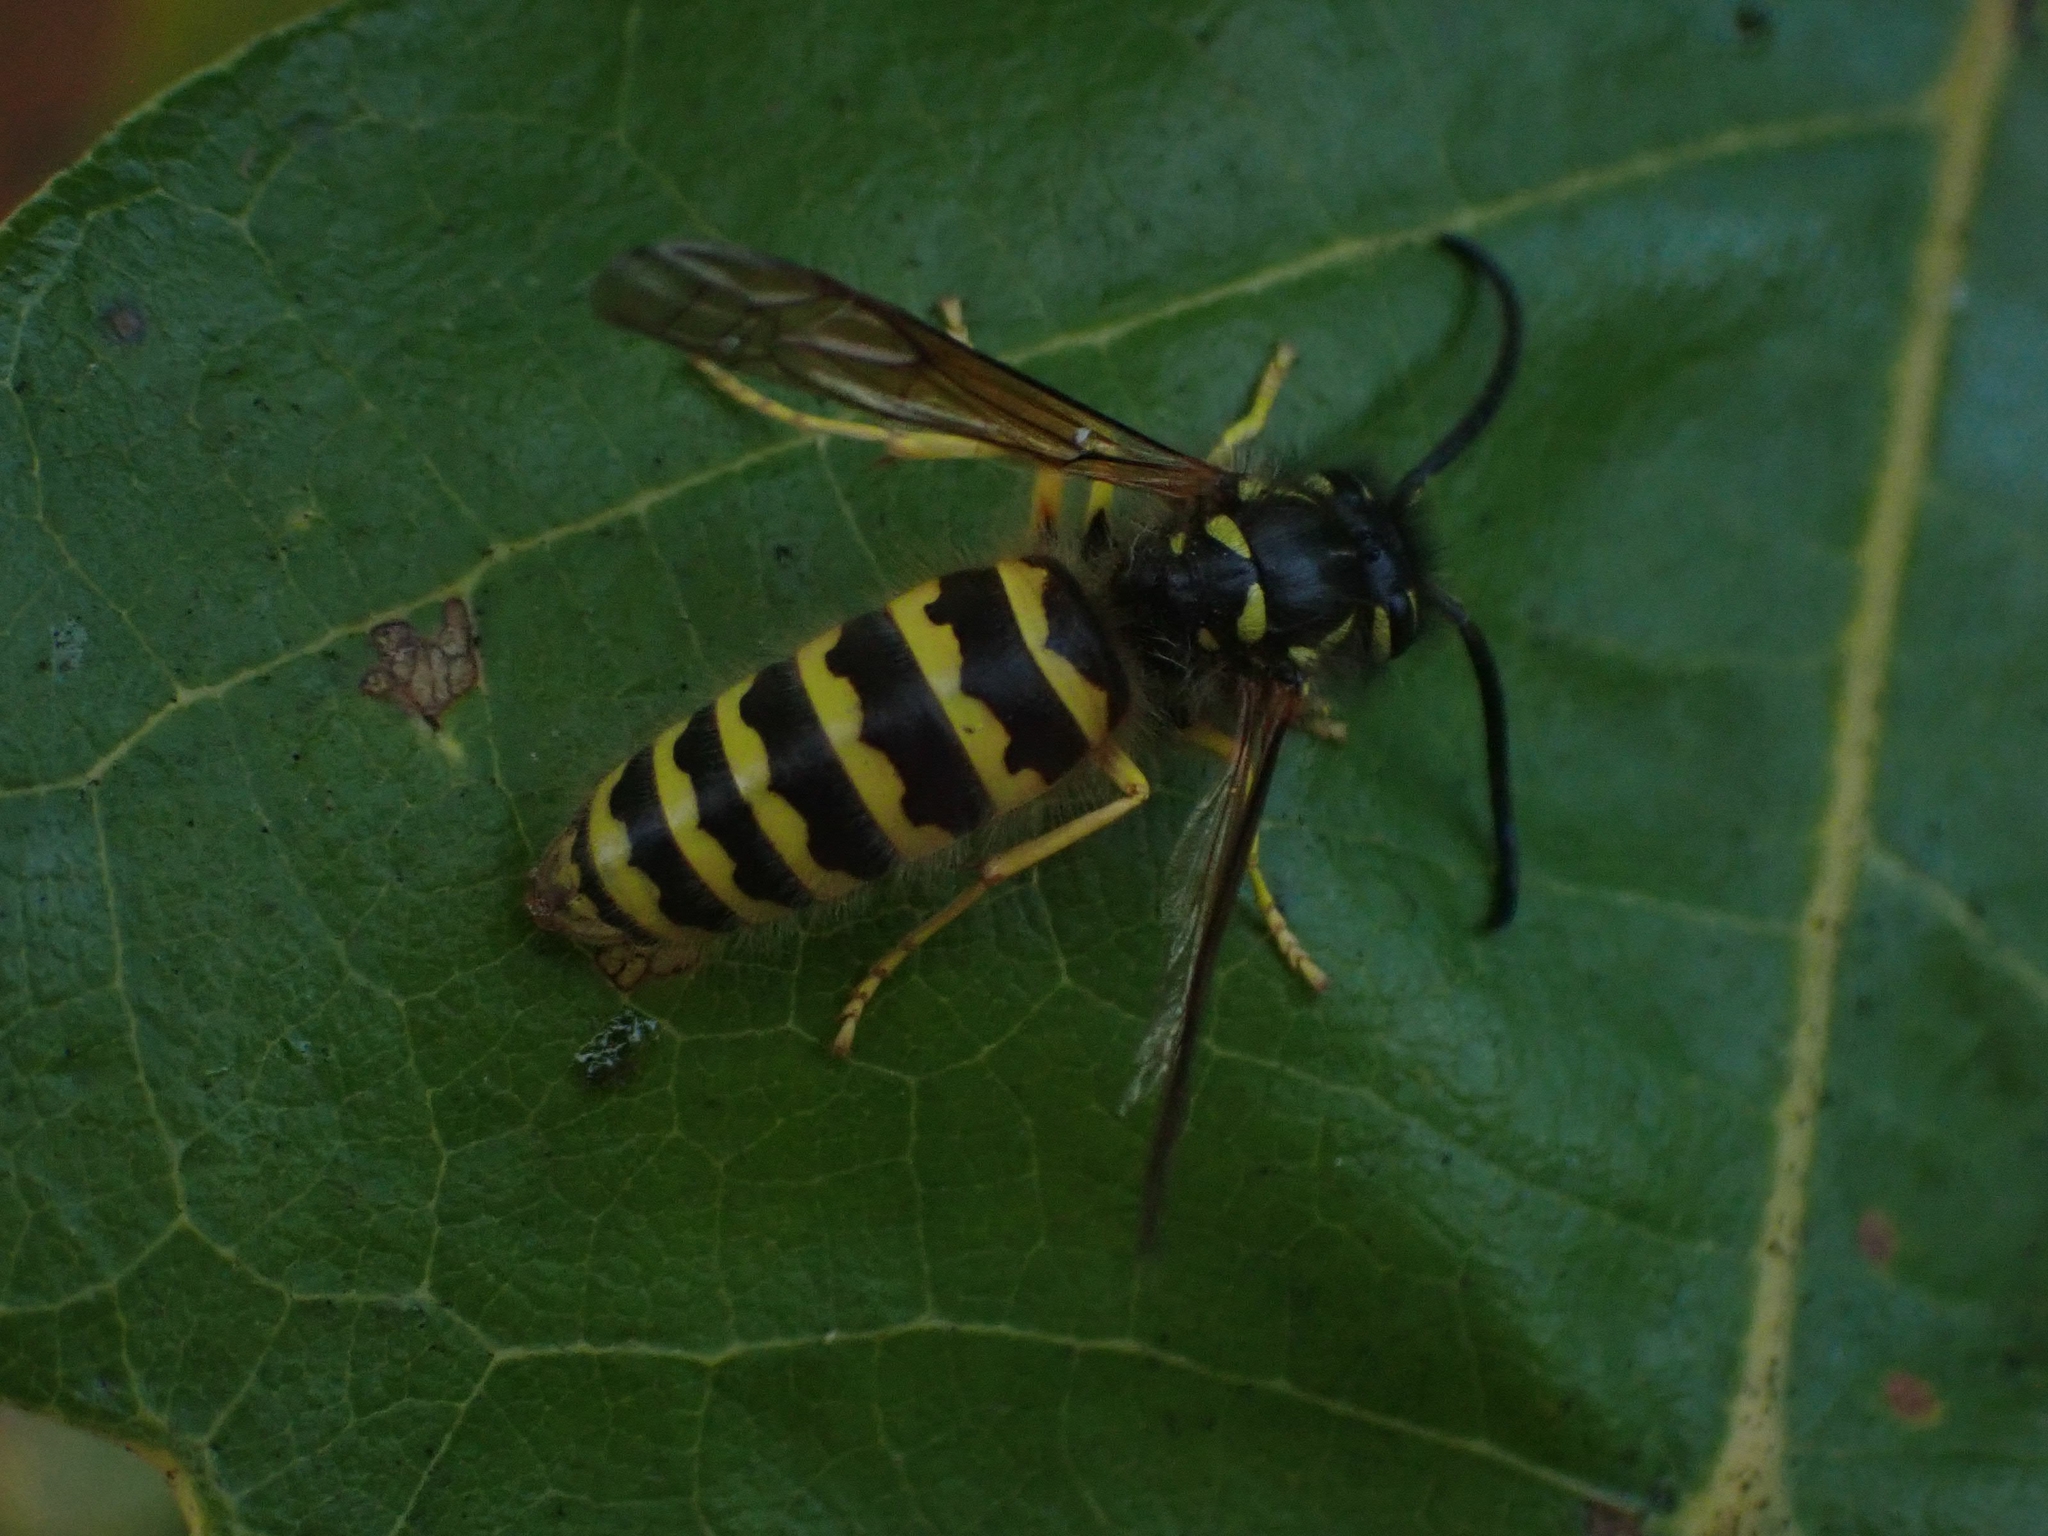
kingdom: Animalia
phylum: Arthropoda
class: Insecta
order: Hymenoptera
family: Vespidae
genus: Vespula
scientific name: Vespula
